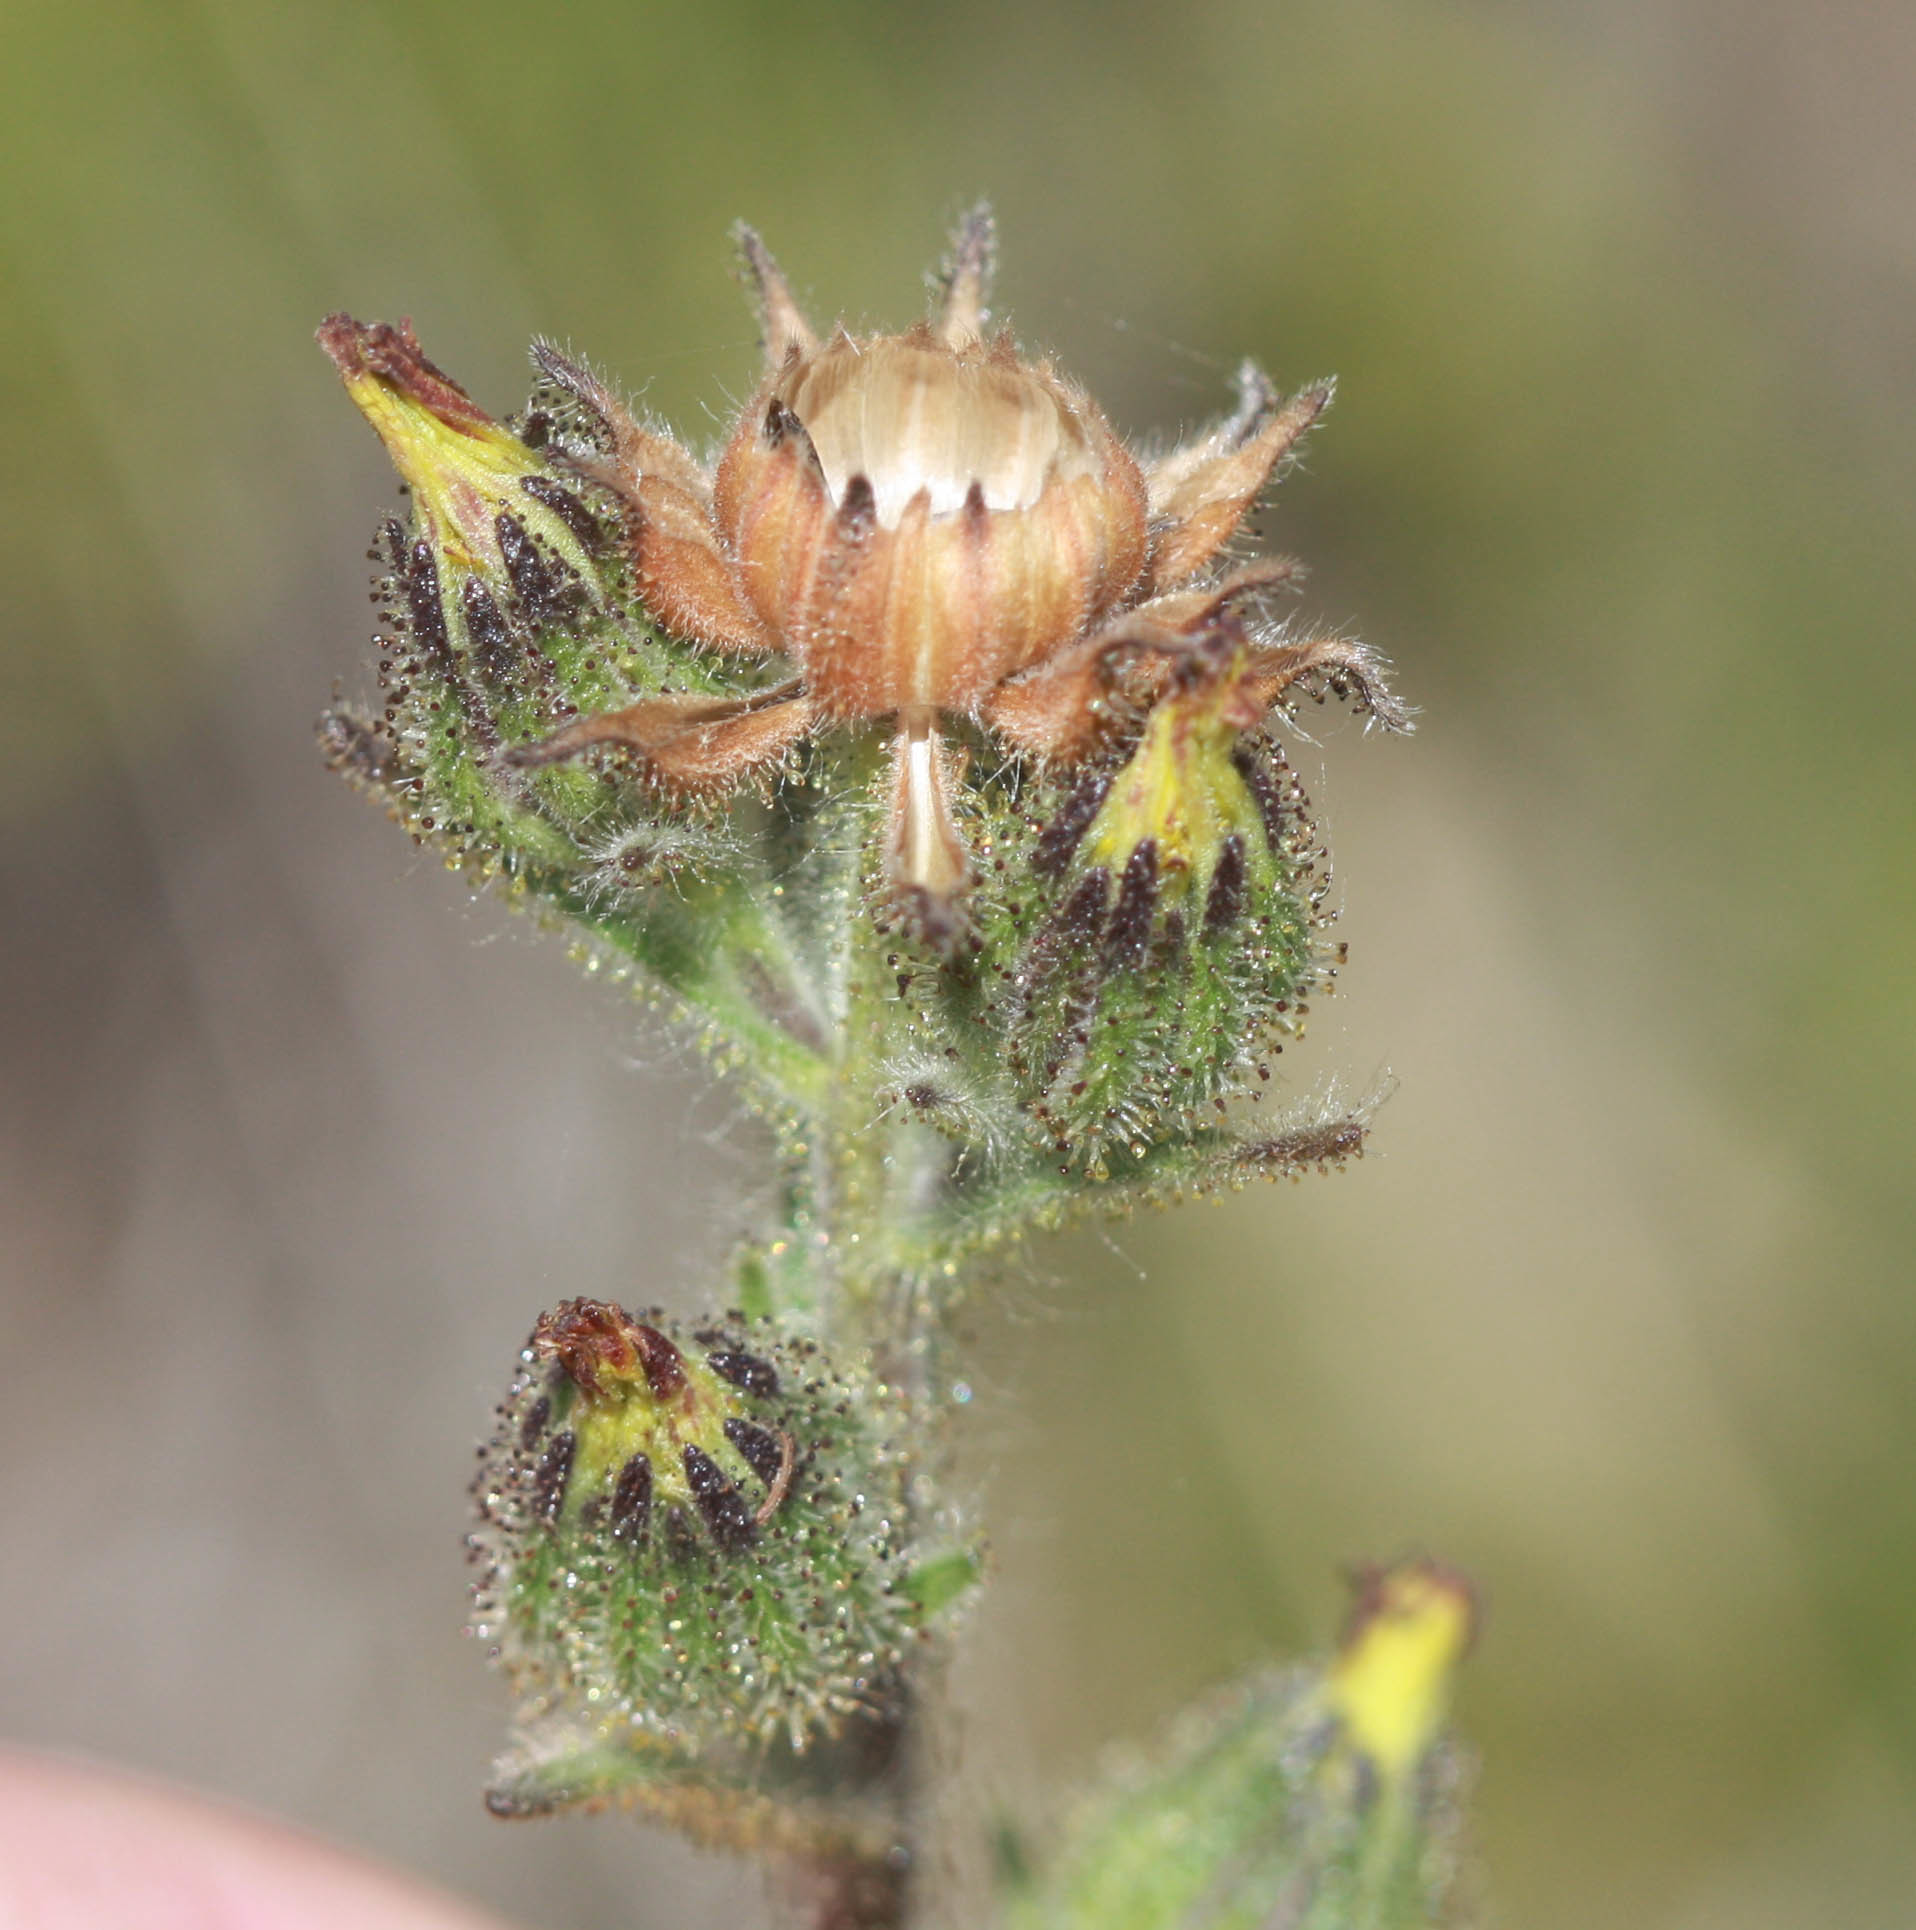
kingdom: Plantae
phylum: Tracheophyta
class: Magnoliopsida
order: Asterales
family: Asteraceae
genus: Madia
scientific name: Madia sativa
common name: Coast tarweed
